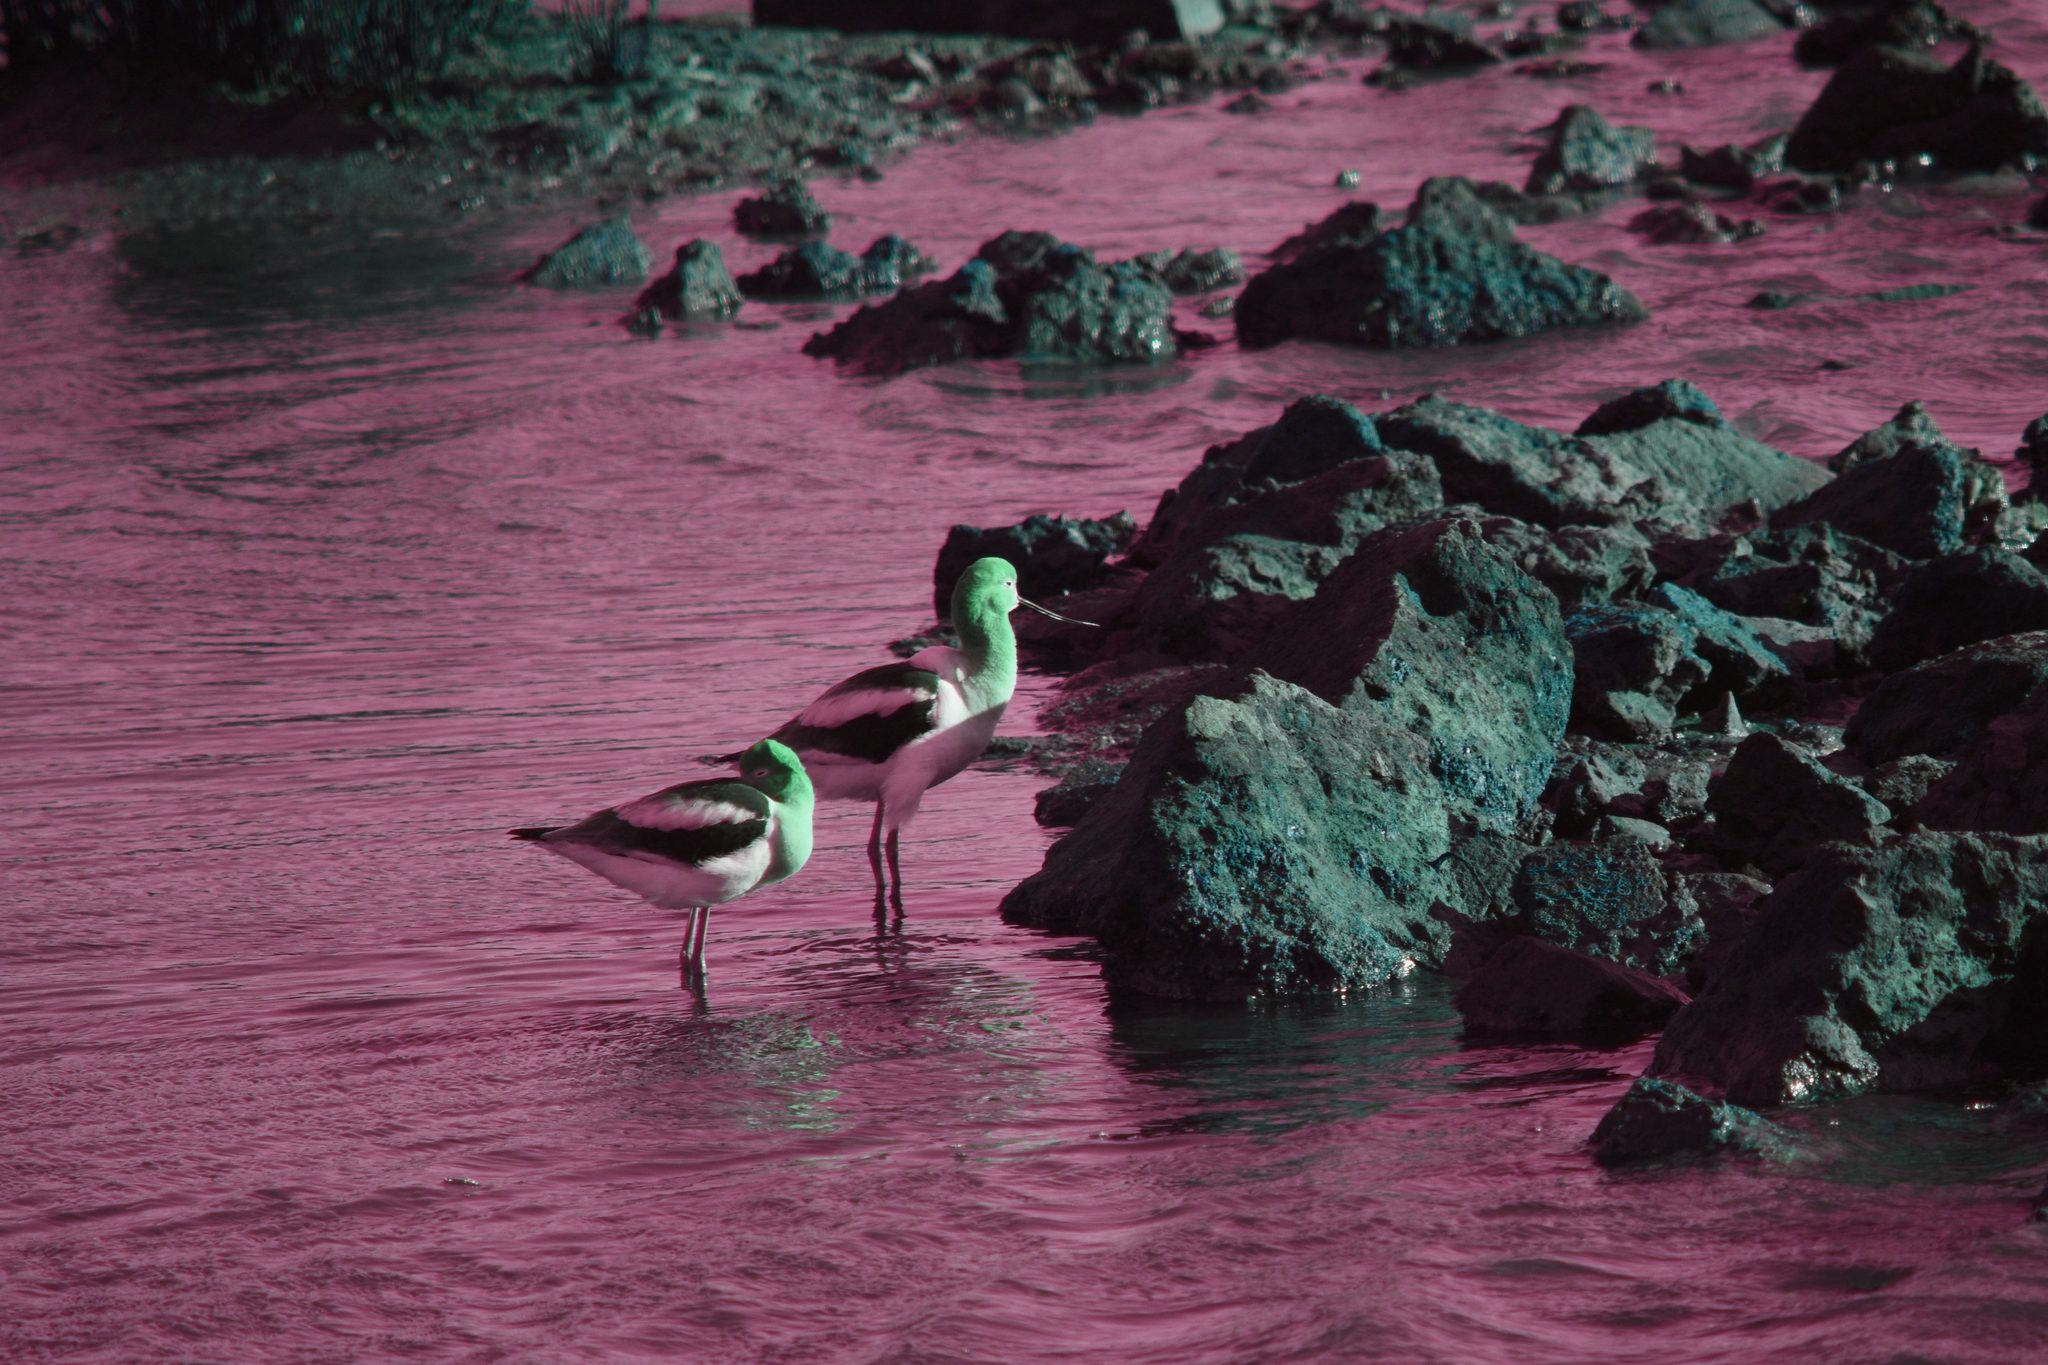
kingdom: Animalia
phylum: Chordata
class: Aves
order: Charadriiformes
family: Recurvirostridae
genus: Recurvirostra
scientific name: Recurvirostra americana
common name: American avocet
